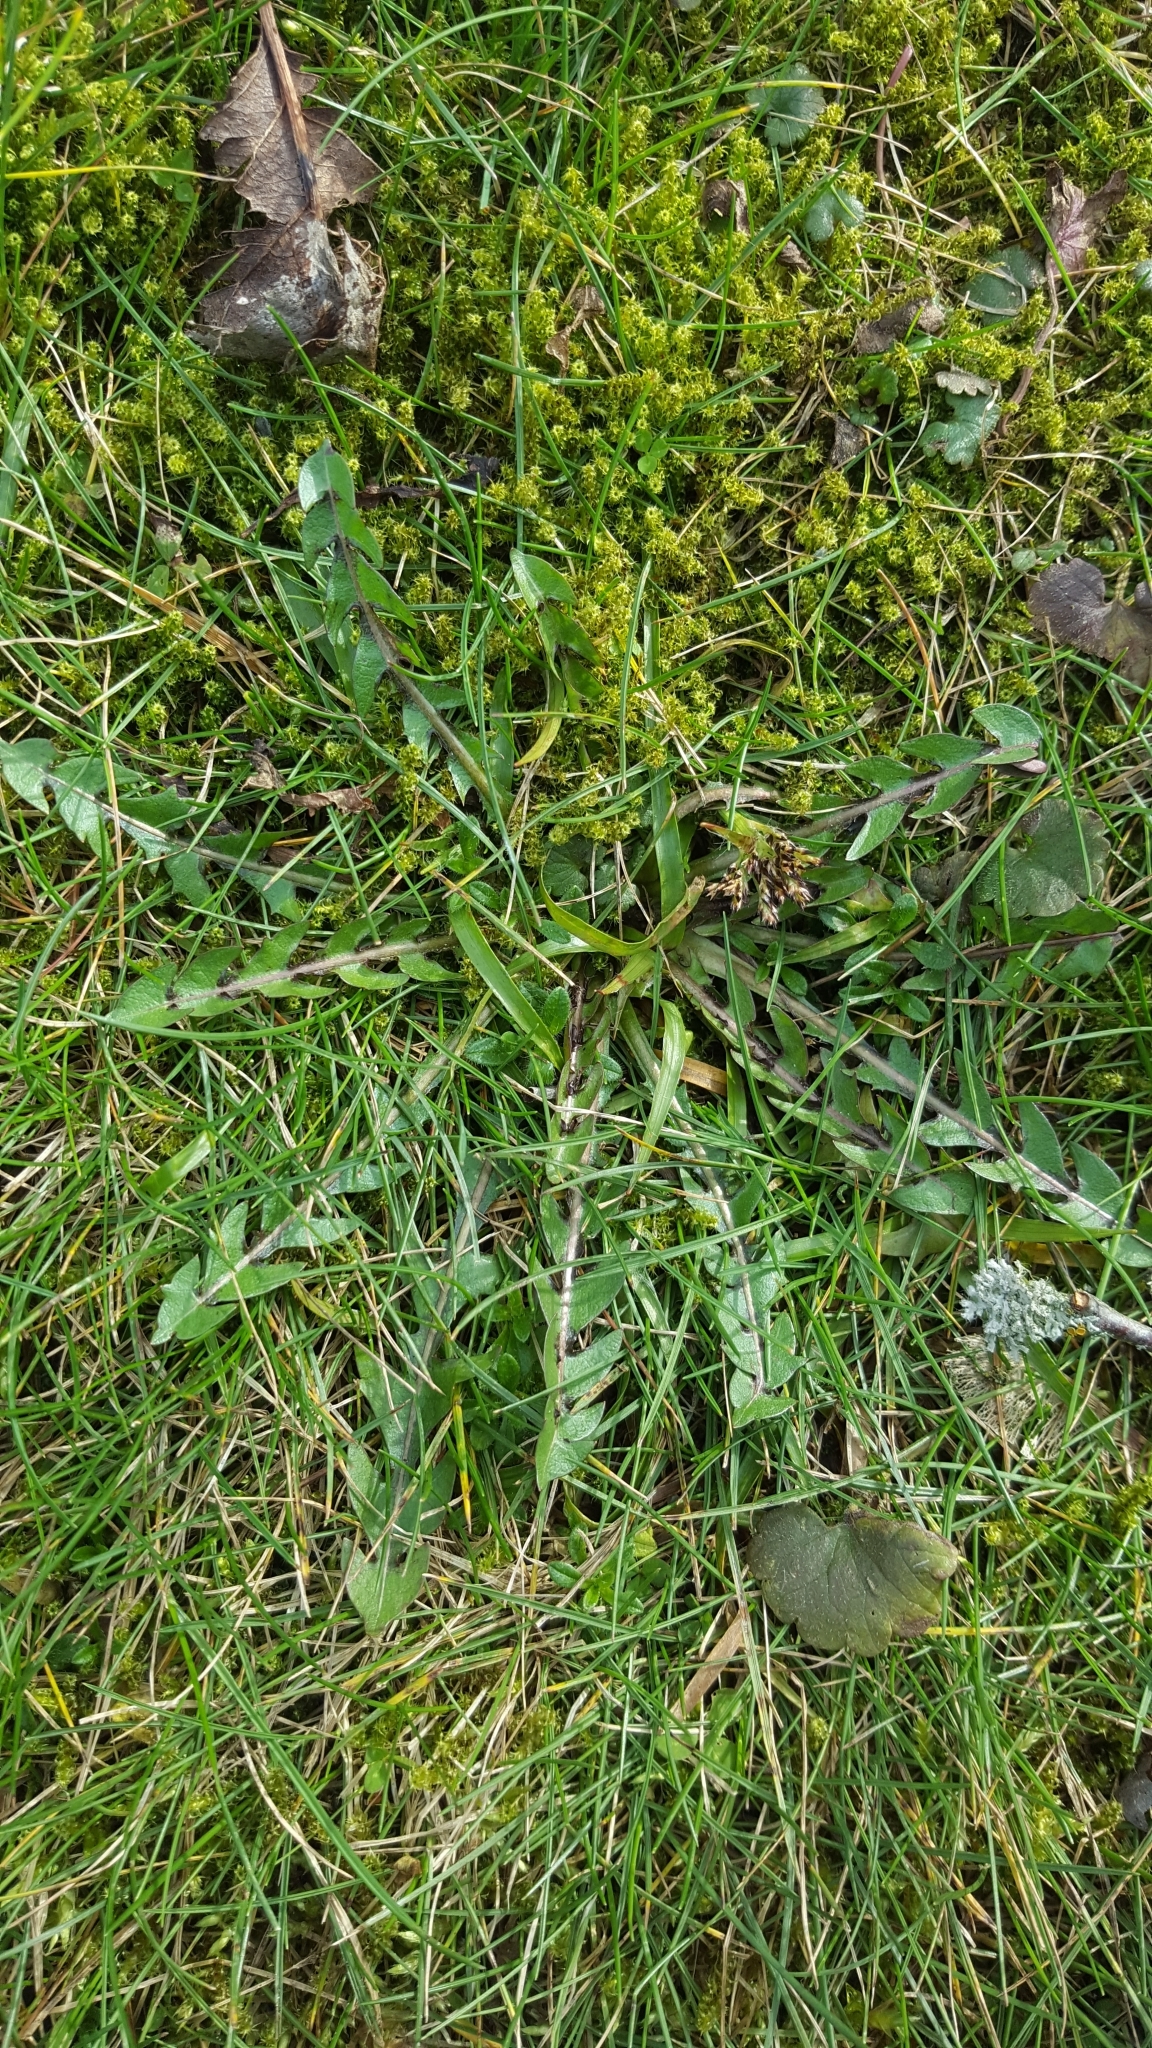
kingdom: Plantae
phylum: Tracheophyta
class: Magnoliopsida
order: Asterales
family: Asteraceae
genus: Taraxacum
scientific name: Taraxacum officinale
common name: Common dandelion
